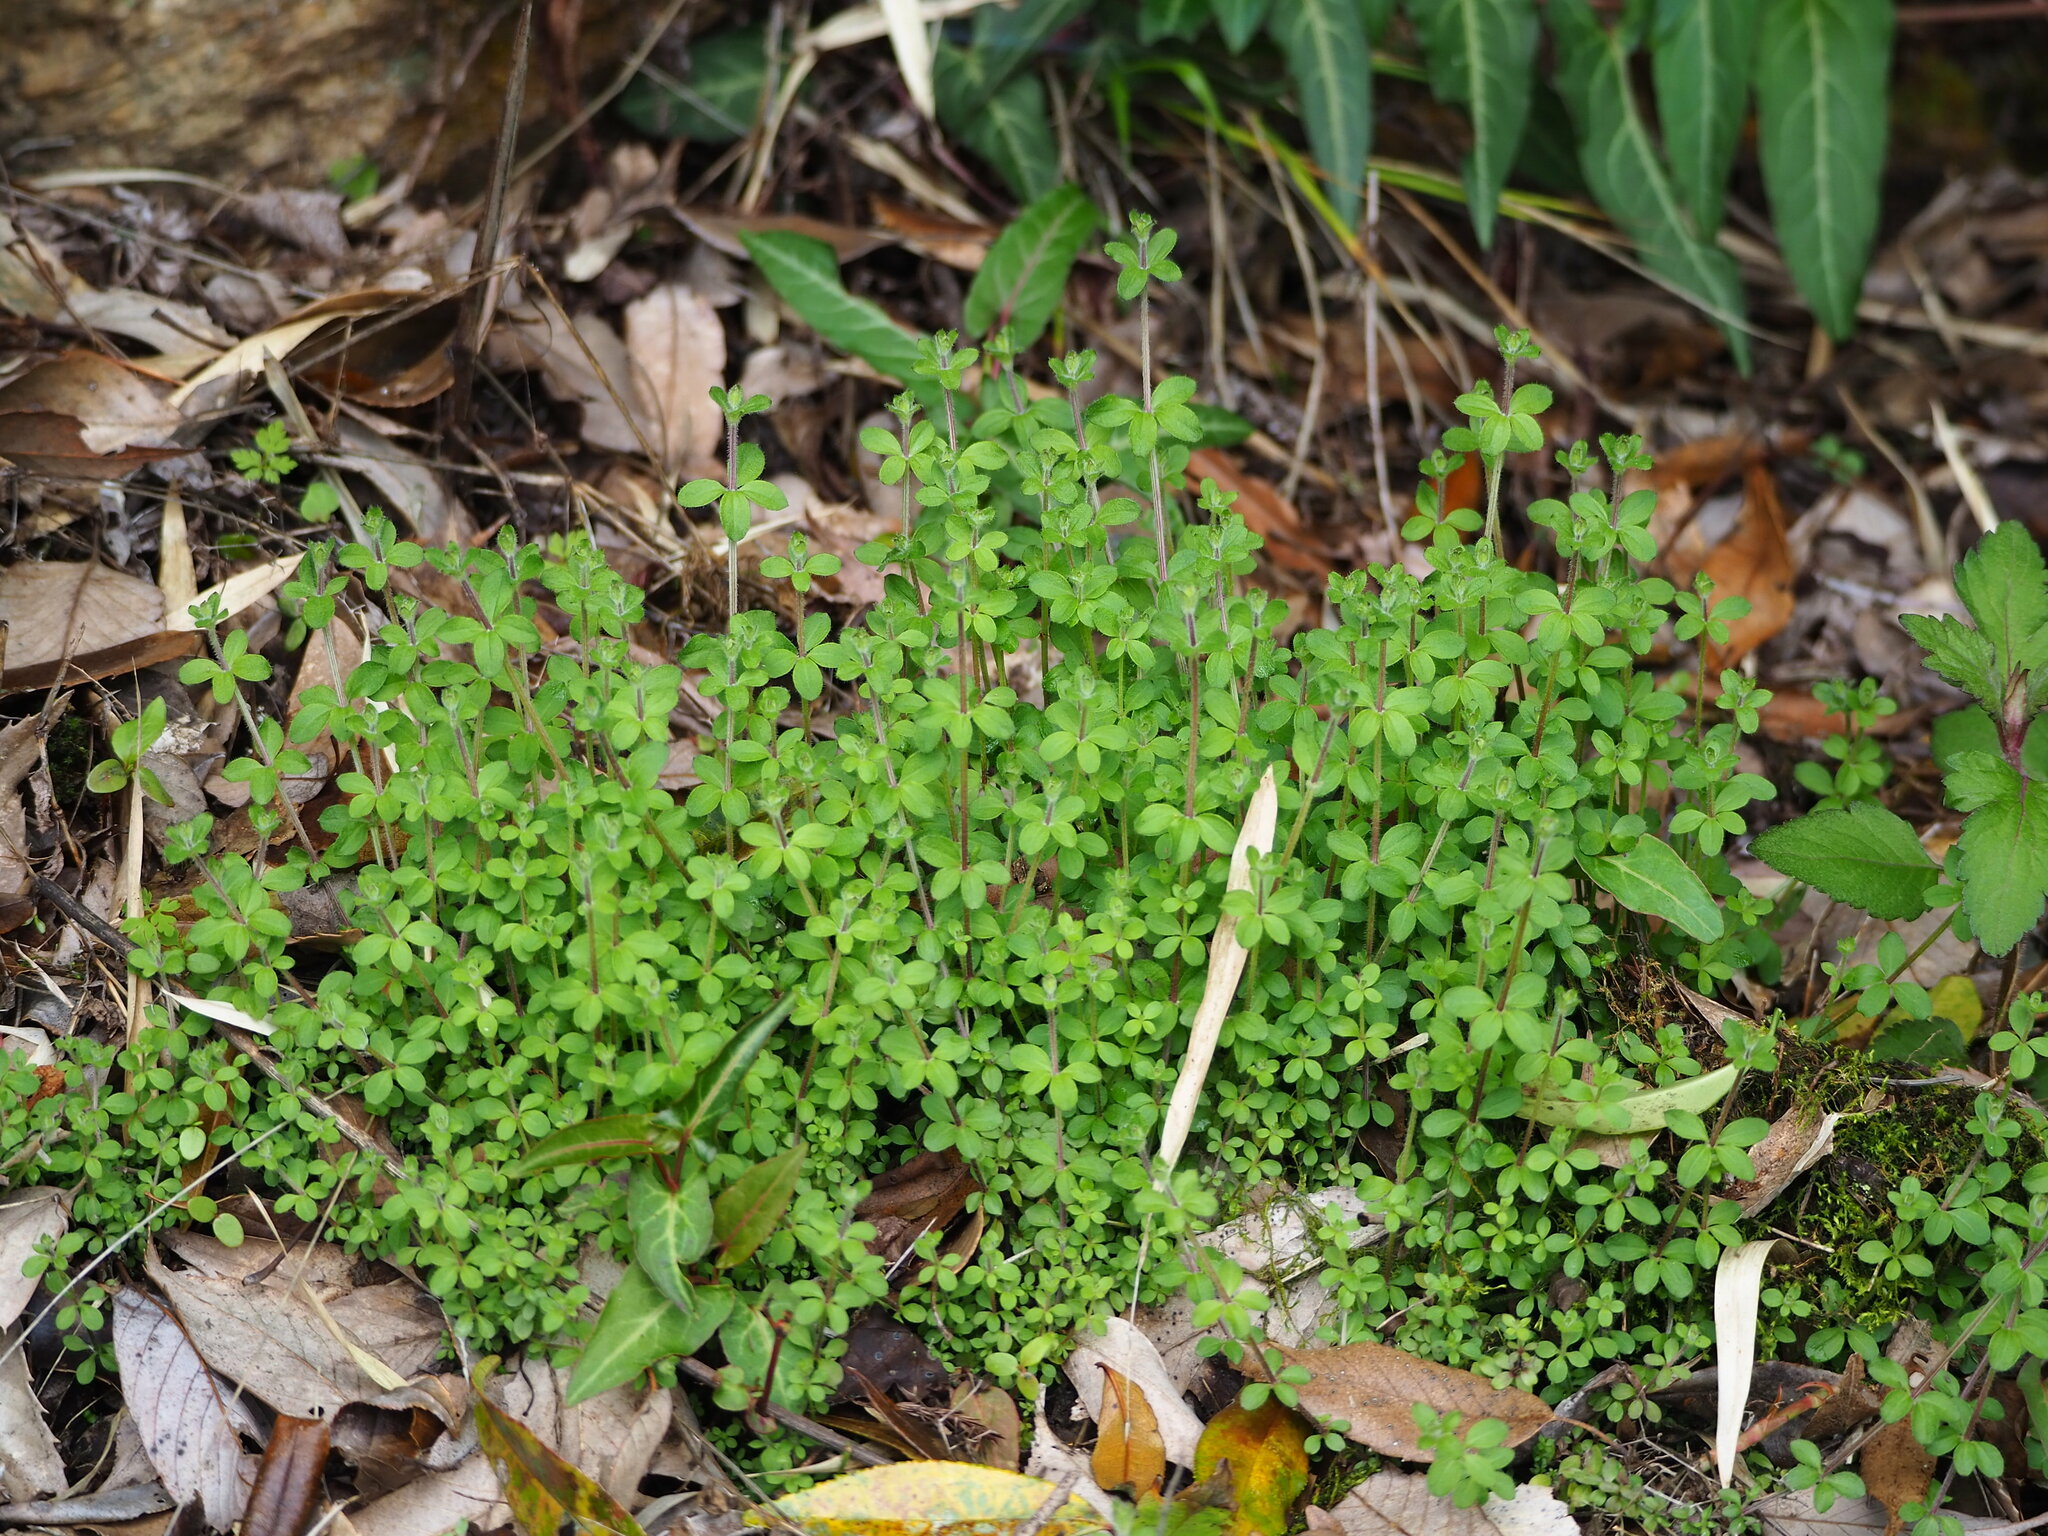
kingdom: Plantae
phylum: Tracheophyta
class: Magnoliopsida
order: Gentianales
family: Rubiaceae
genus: Galium
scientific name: Galium formosense
